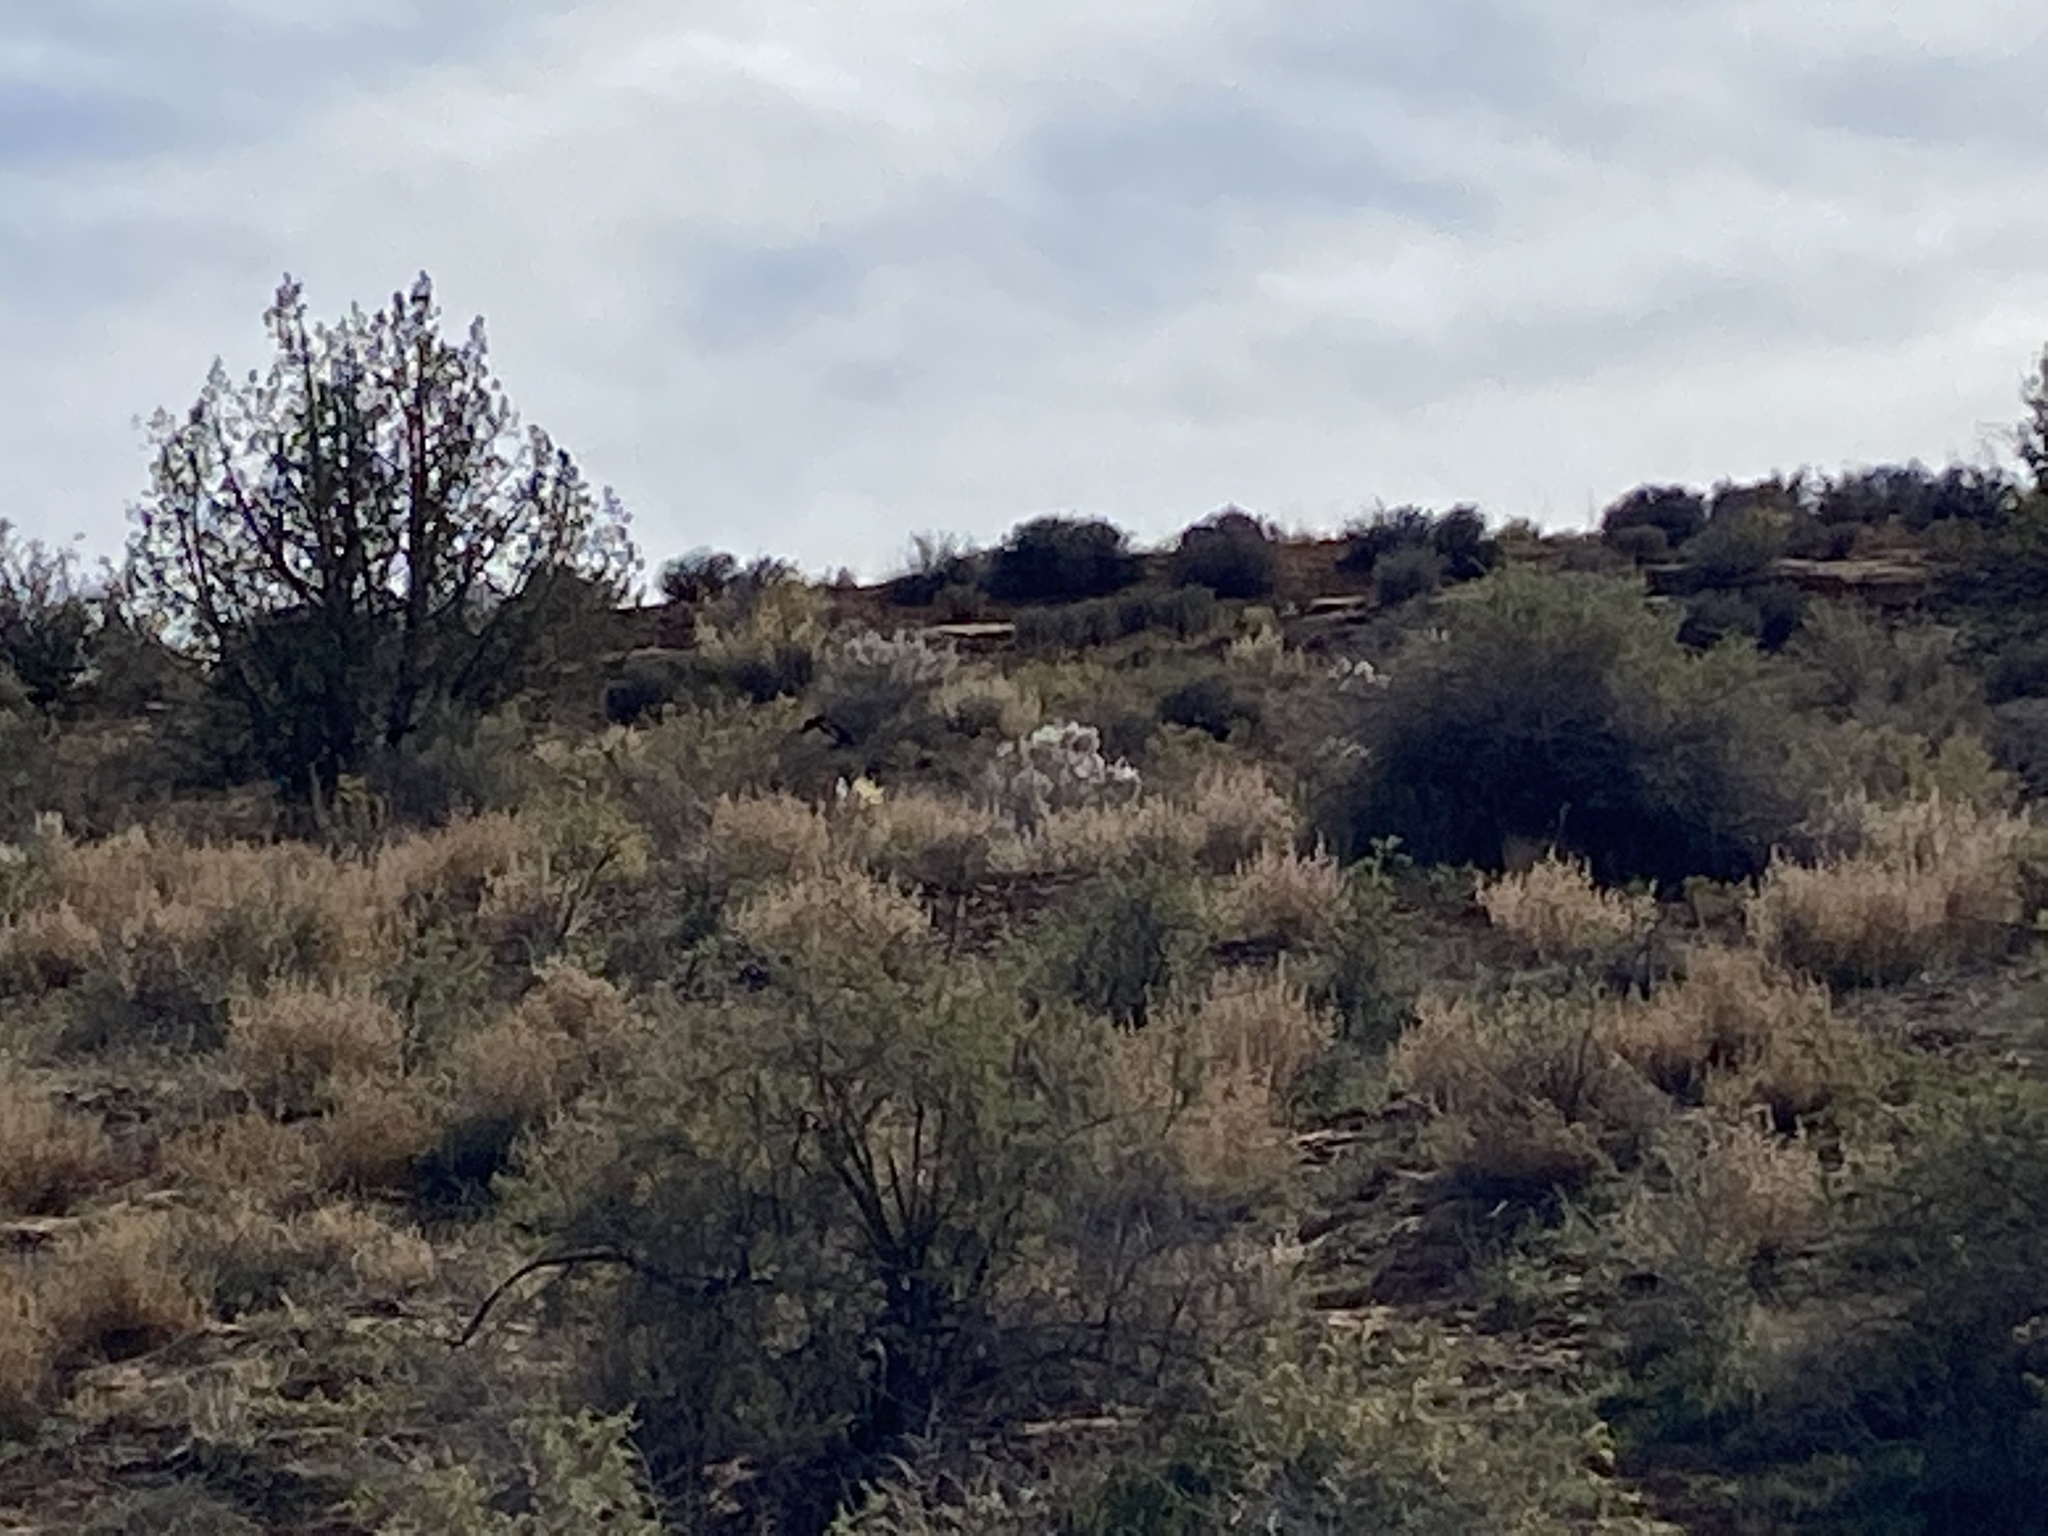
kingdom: Plantae
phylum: Tracheophyta
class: Magnoliopsida
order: Caryophyllales
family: Amaranthaceae
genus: Krascheninnikovia
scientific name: Krascheninnikovia lanata
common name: Winterfat
